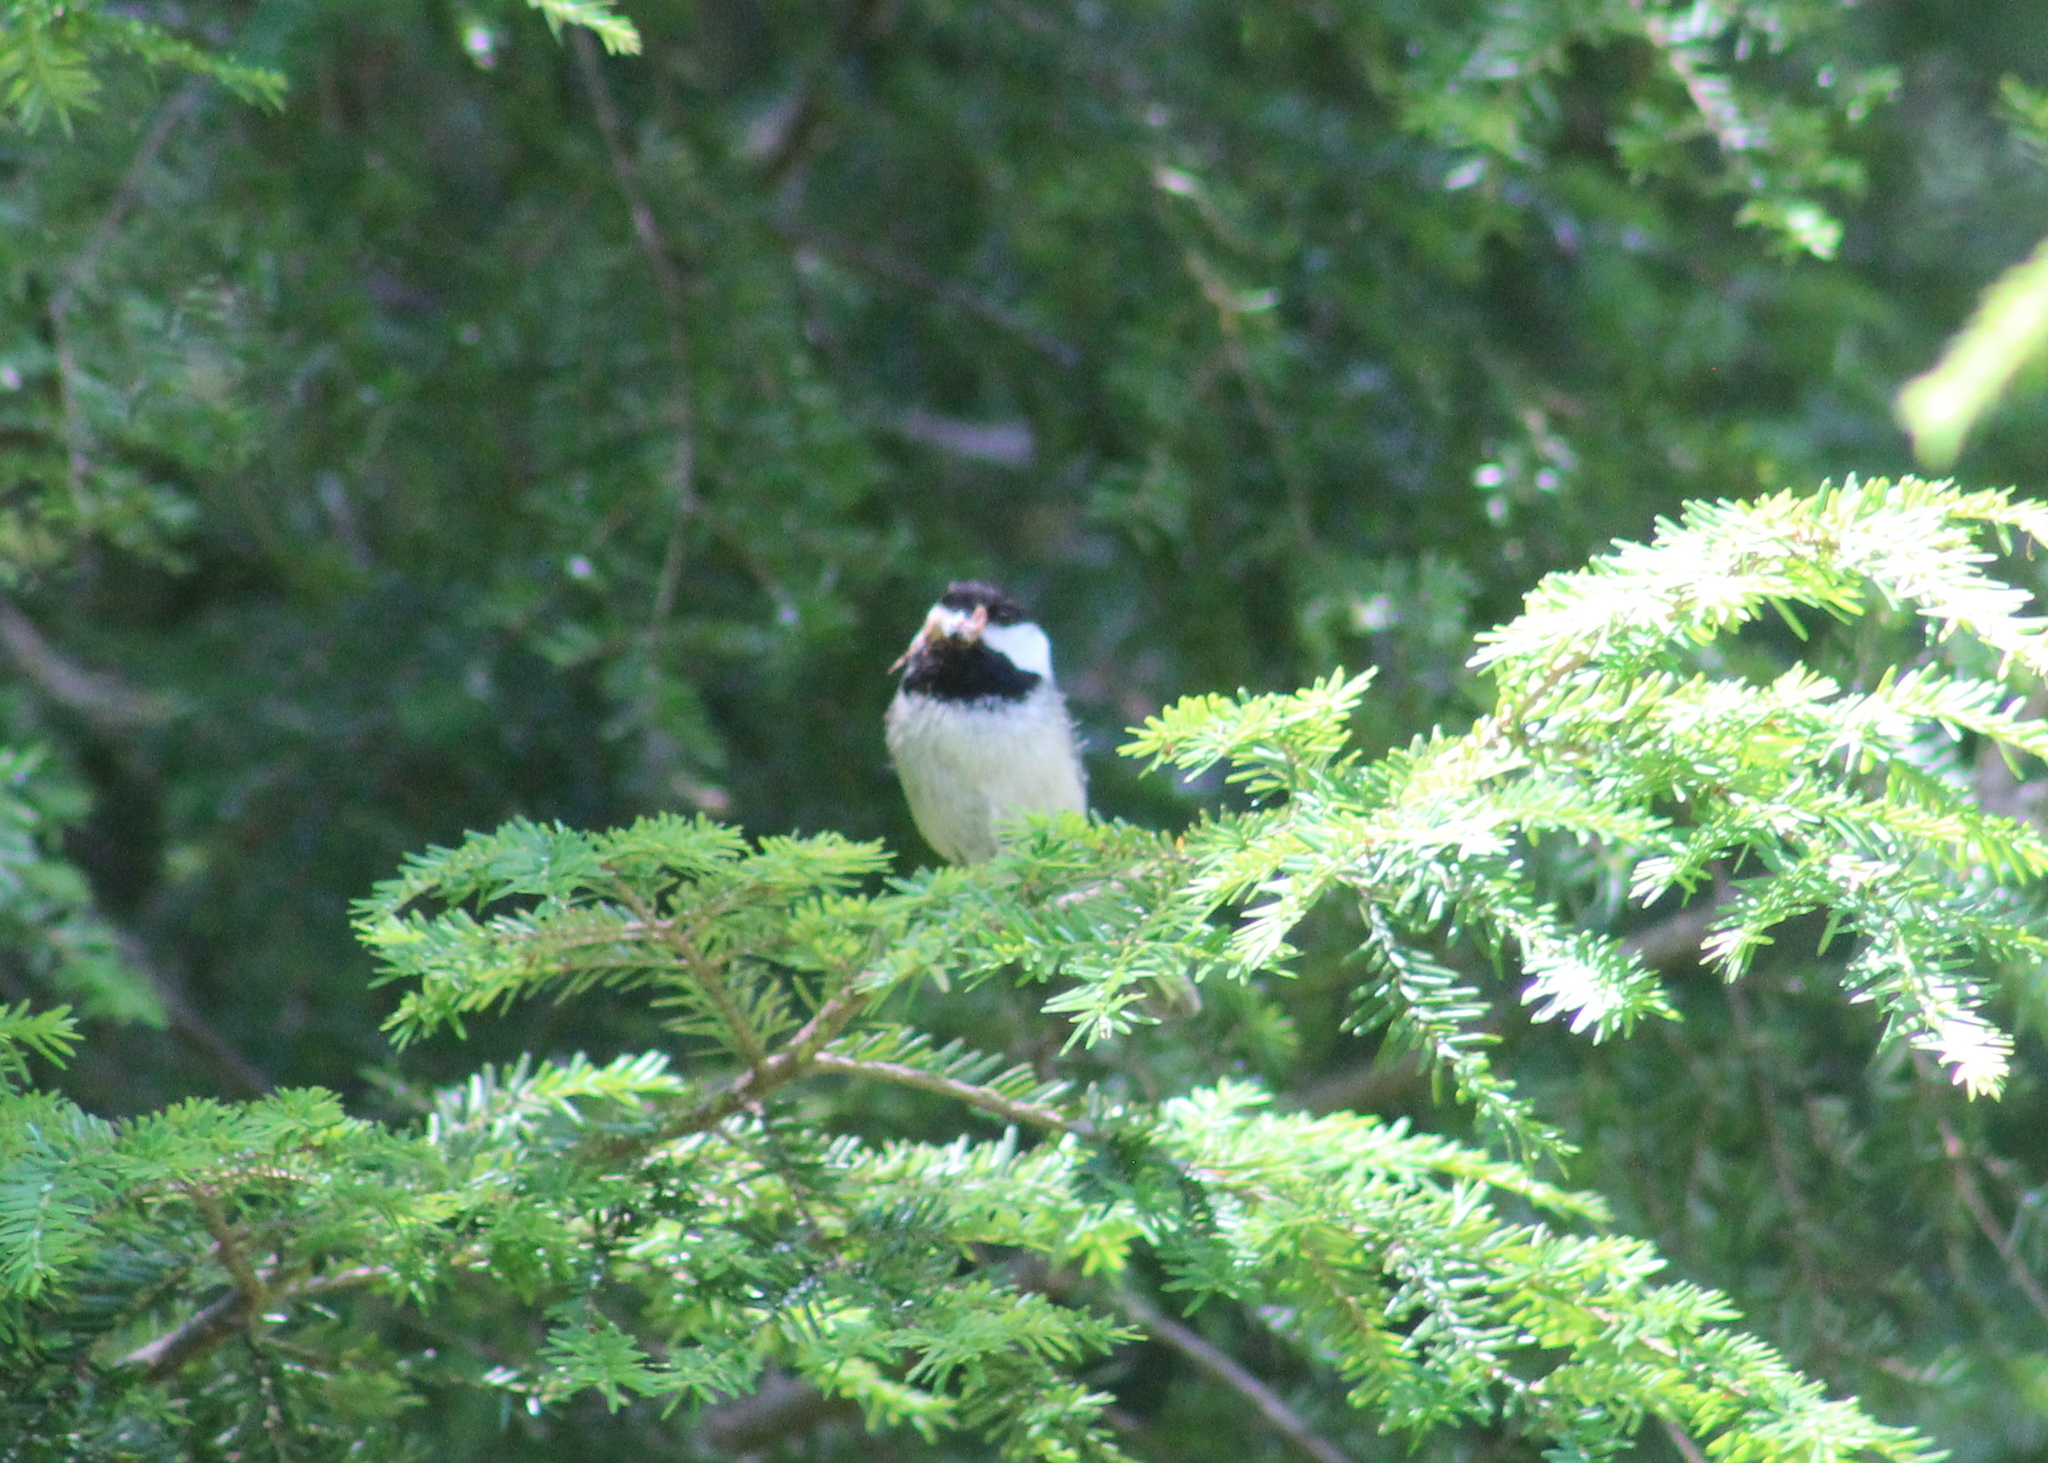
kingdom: Animalia
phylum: Chordata
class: Aves
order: Passeriformes
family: Paridae
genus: Poecile
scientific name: Poecile atricapillus
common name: Black-capped chickadee
